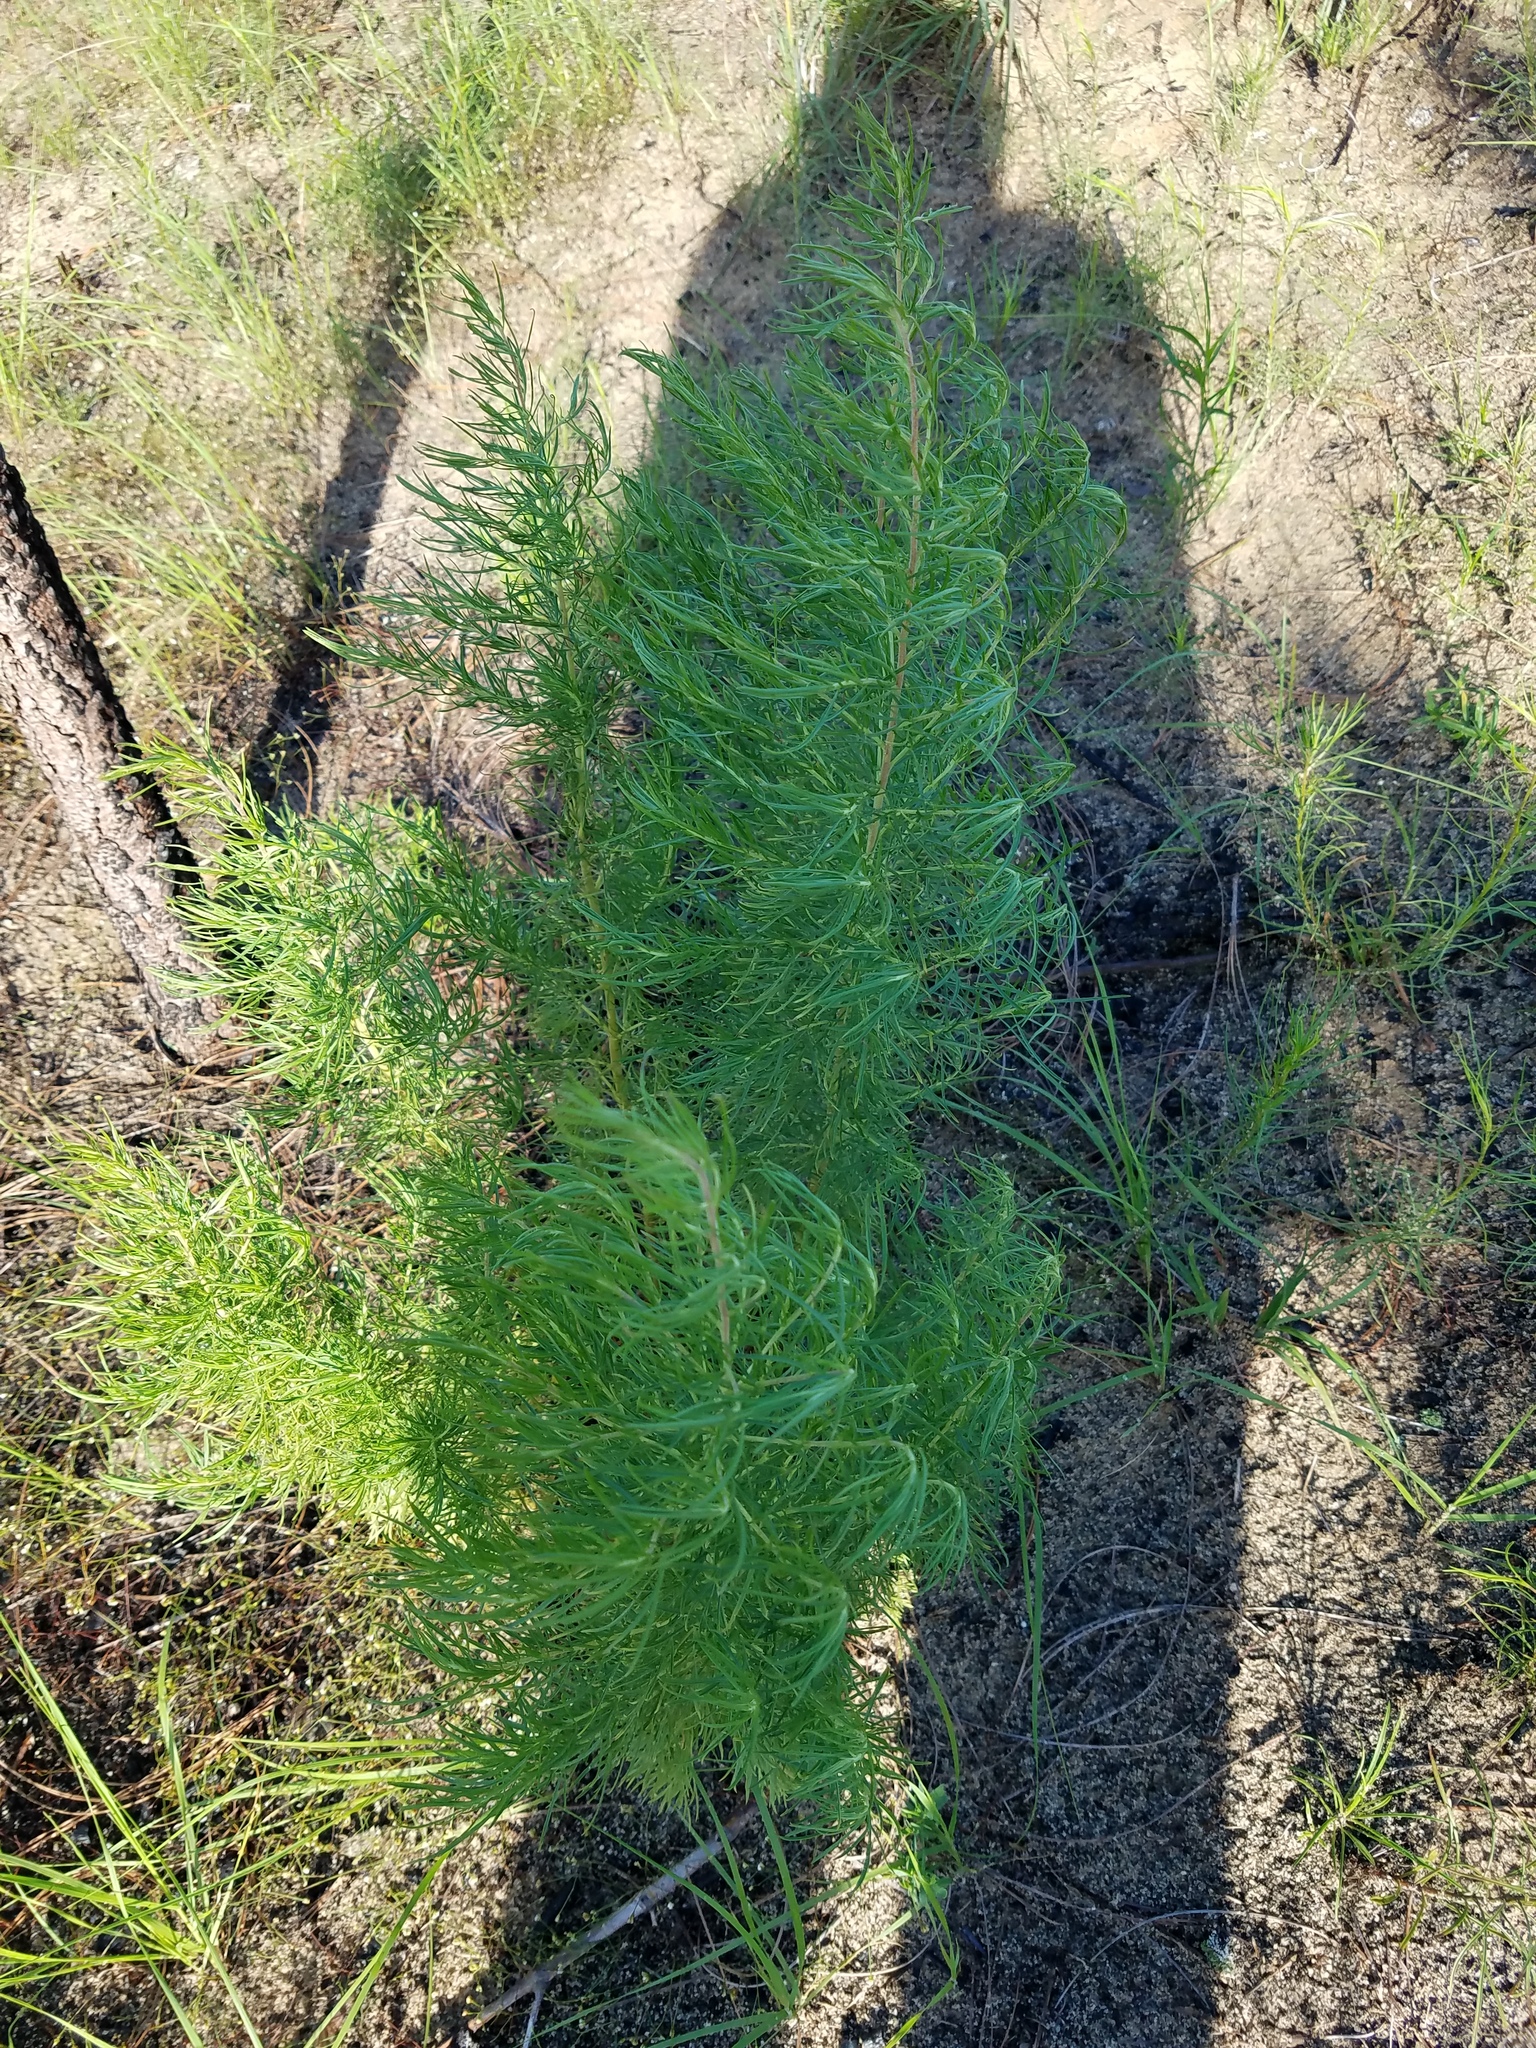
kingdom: Plantae
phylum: Tracheophyta
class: Magnoliopsida
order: Asterales
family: Asteraceae
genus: Eupatorium
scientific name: Eupatorium capillifolium
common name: Dog-fennel
